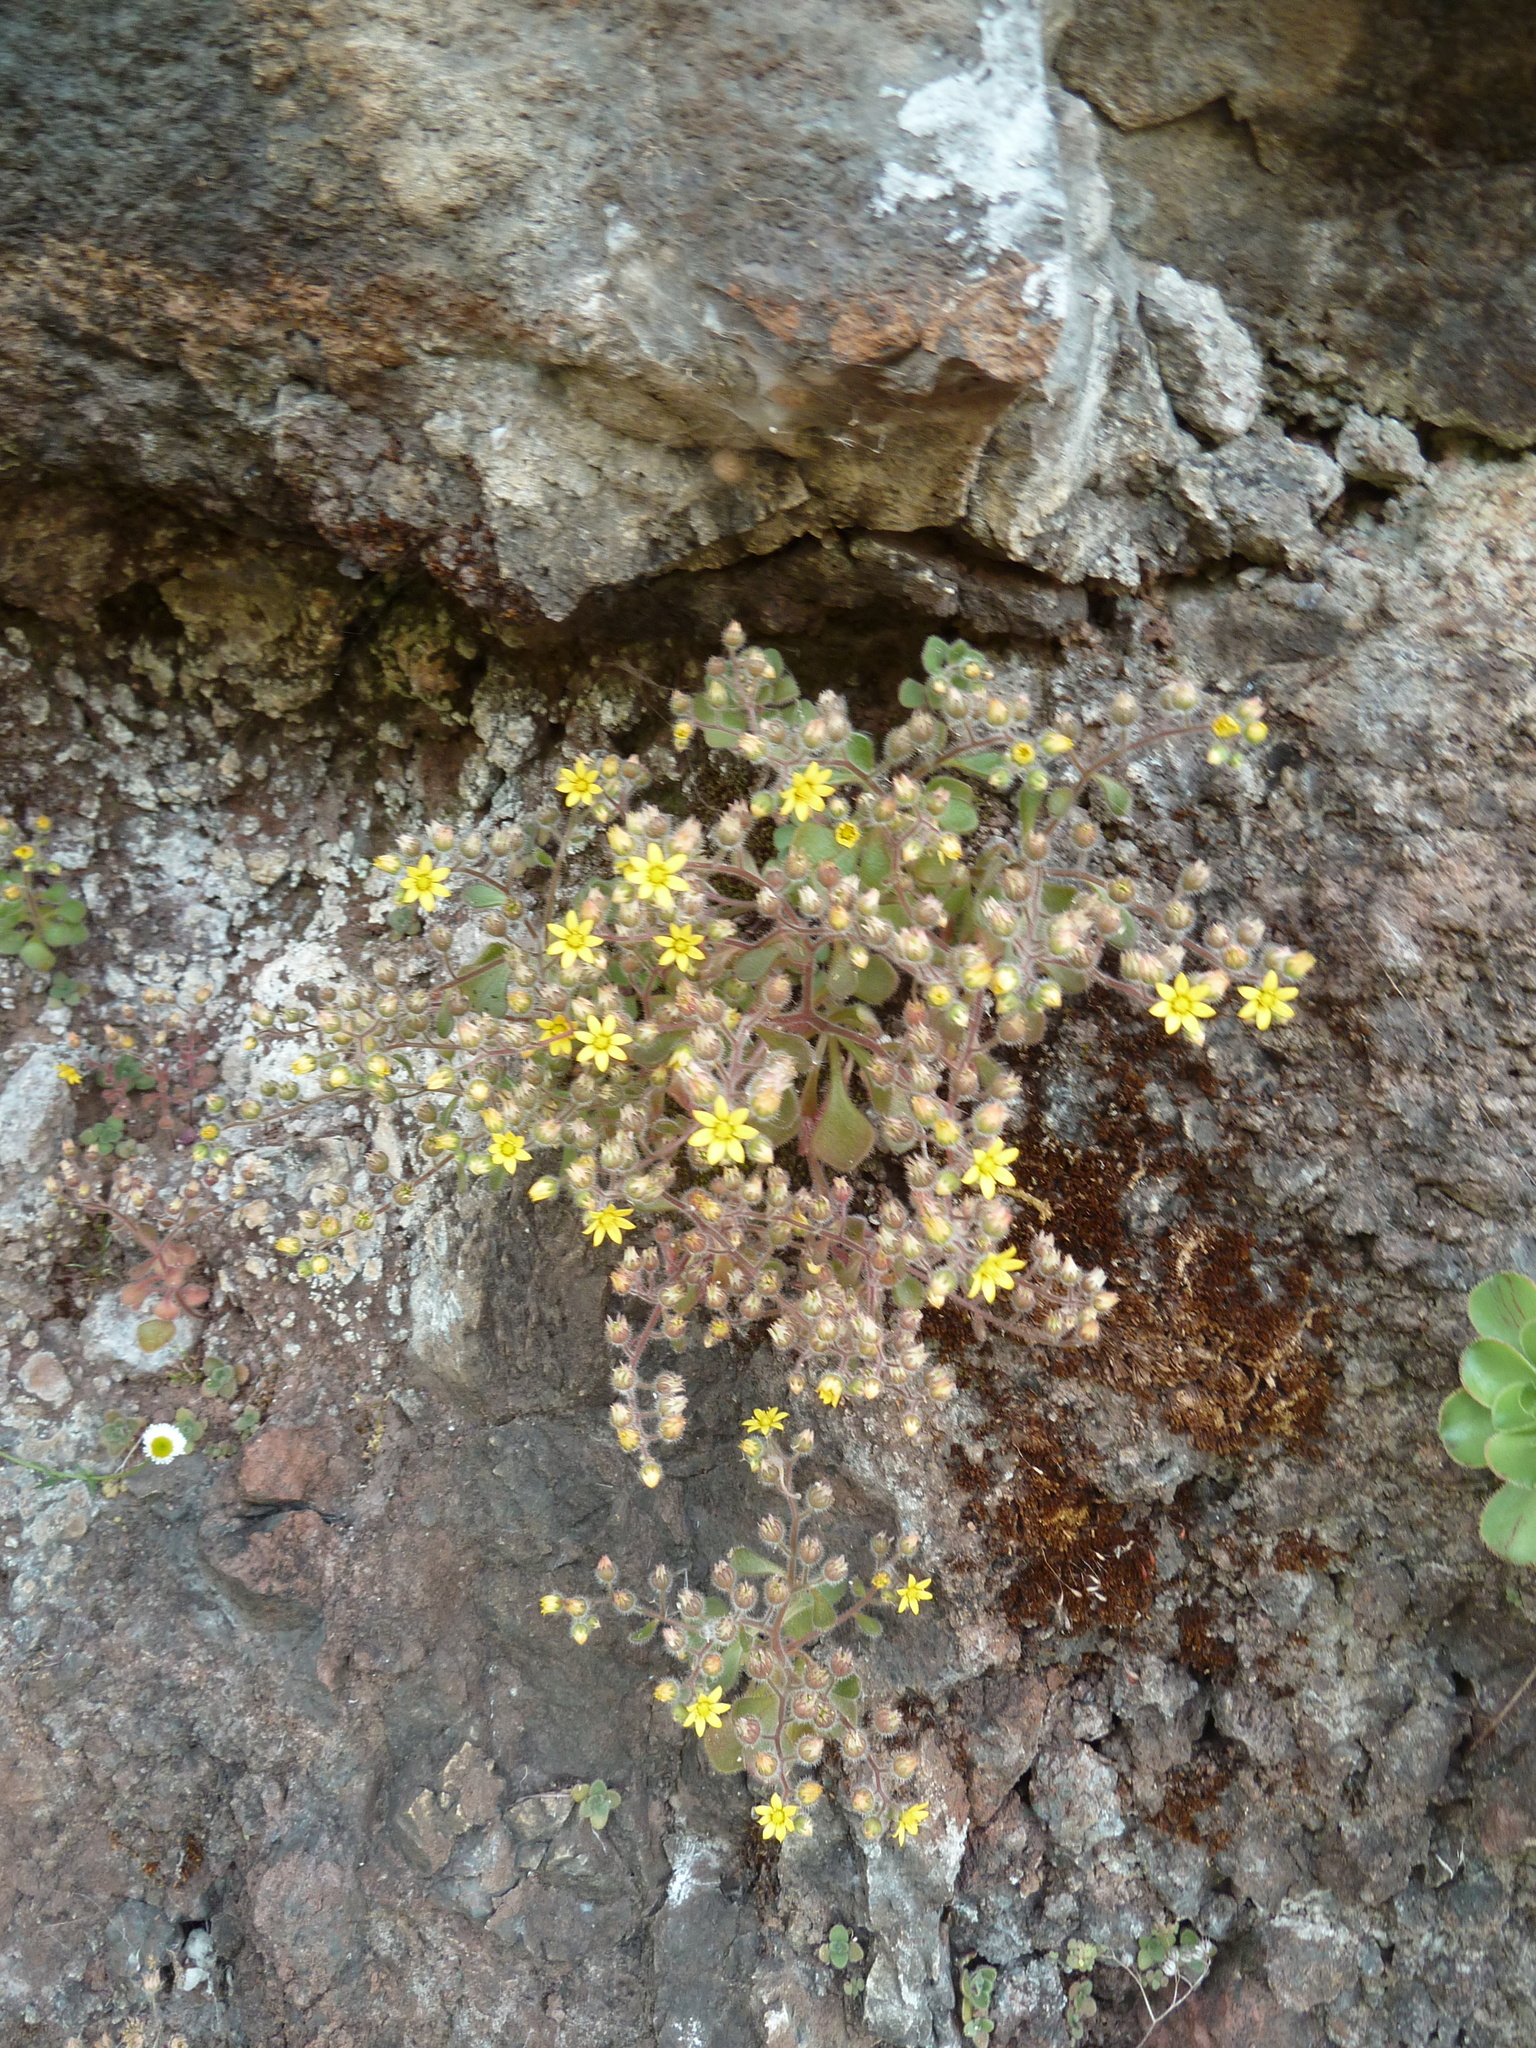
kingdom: Plantae
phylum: Tracheophyta
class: Magnoliopsida
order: Saxifragales
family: Crassulaceae
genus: Aichryson
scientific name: Aichryson villosum
